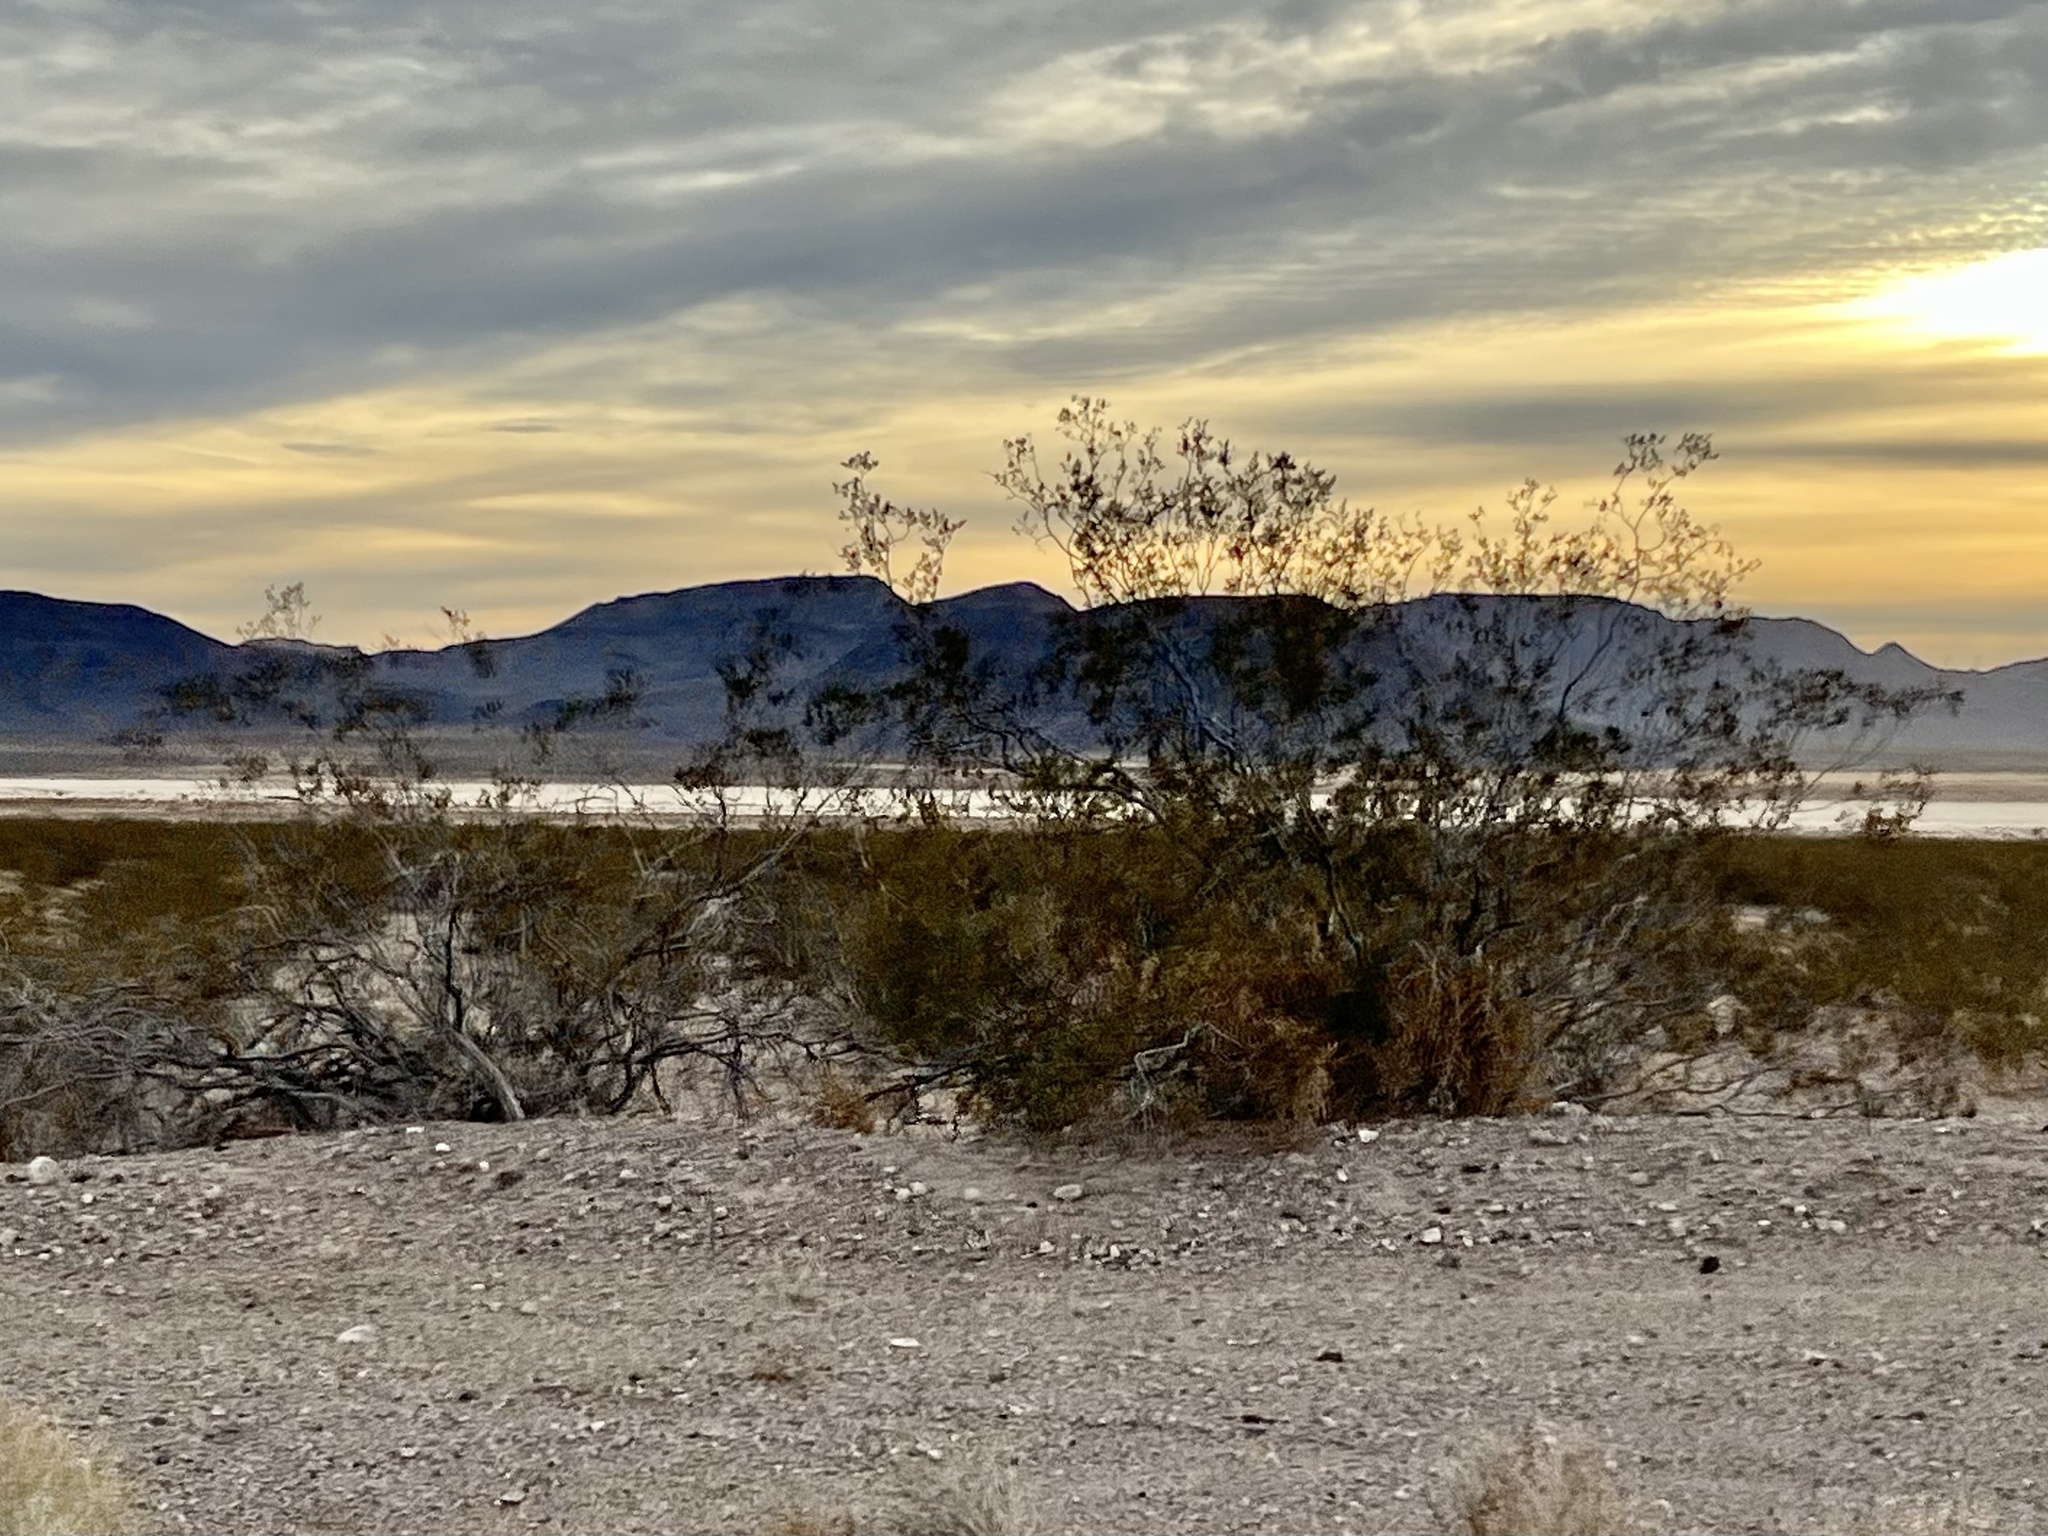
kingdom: Plantae
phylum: Tracheophyta
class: Magnoliopsida
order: Zygophyllales
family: Zygophyllaceae
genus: Larrea
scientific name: Larrea tridentata
